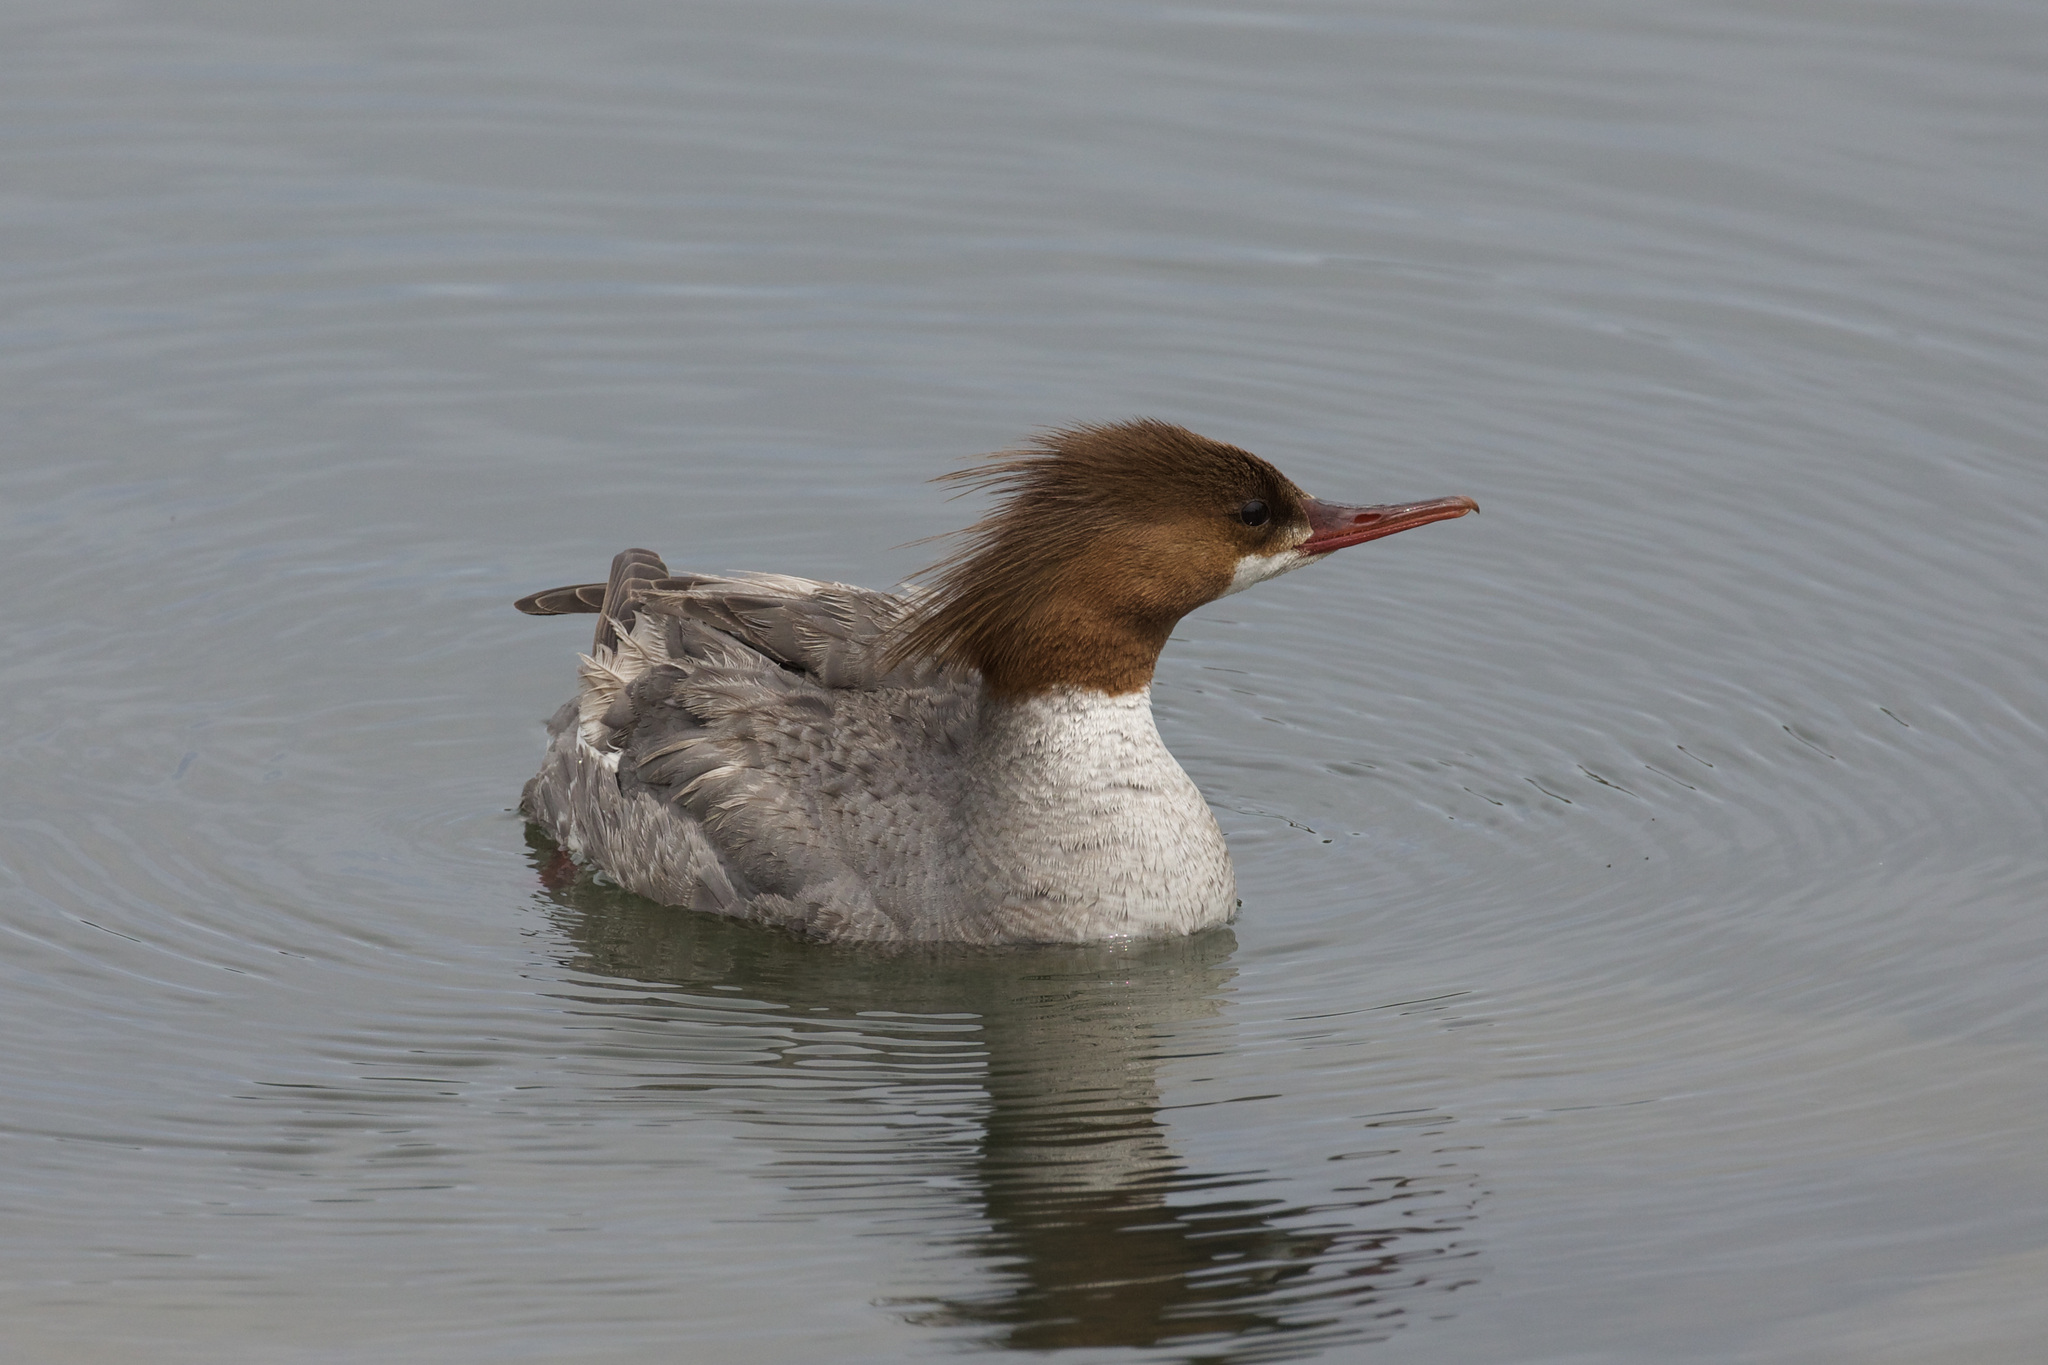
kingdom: Animalia
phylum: Chordata
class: Aves
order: Anseriformes
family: Anatidae
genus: Mergus
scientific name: Mergus merganser
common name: Common merganser
